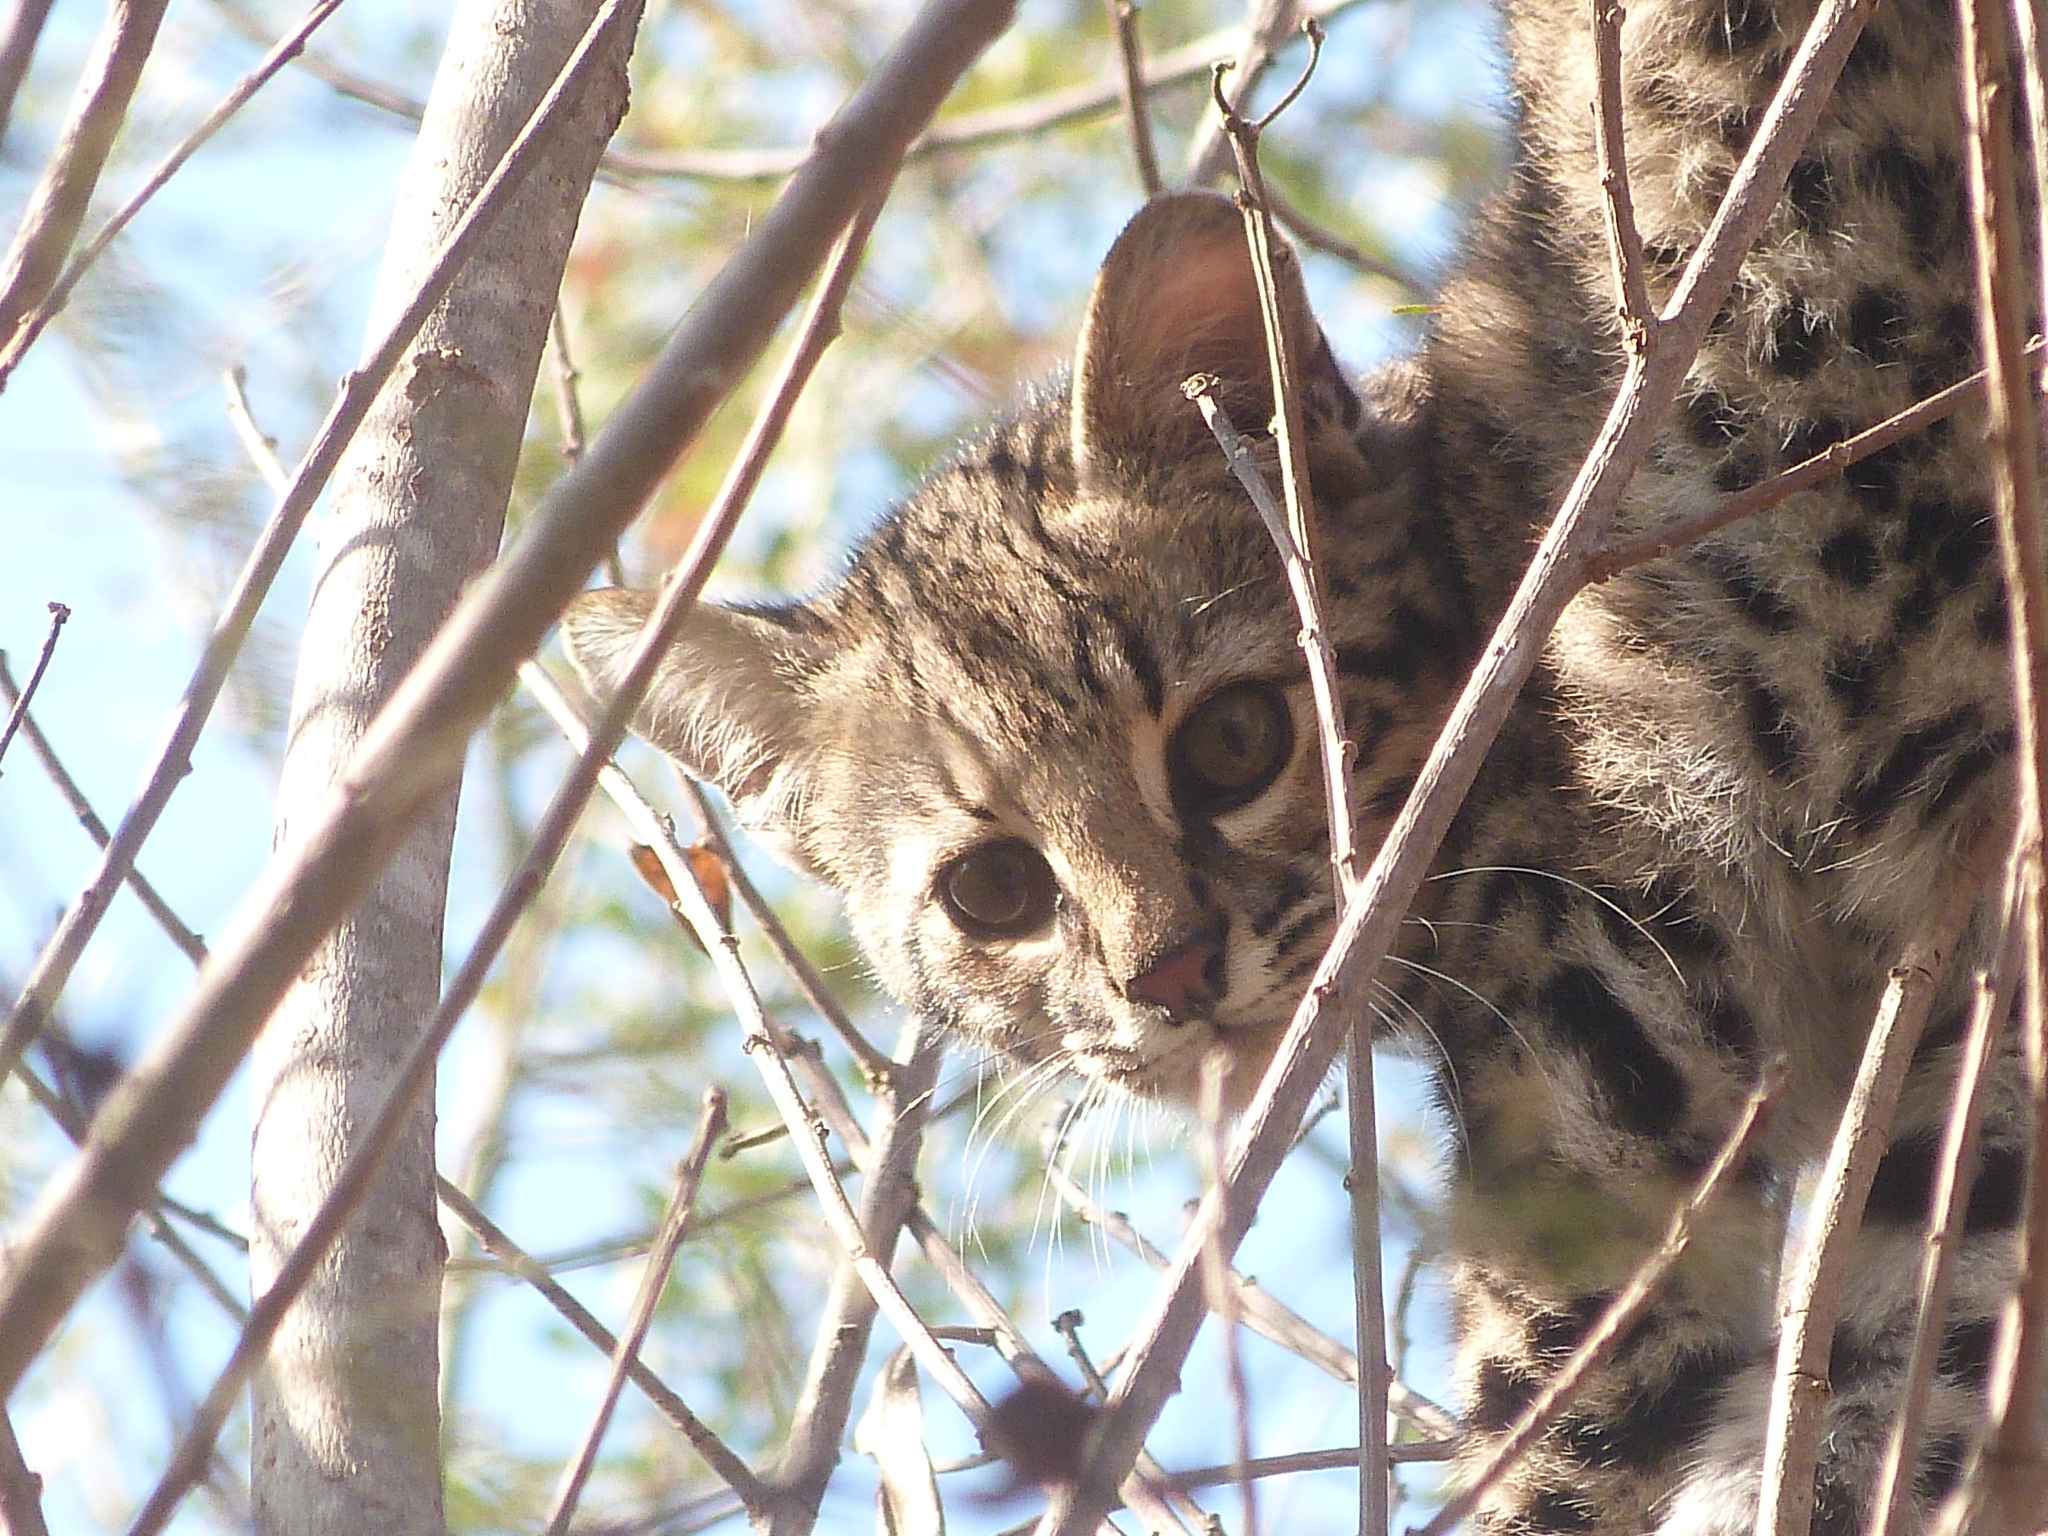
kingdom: Animalia
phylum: Chordata
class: Mammalia
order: Carnivora
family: Felidae
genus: Leopardus
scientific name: Leopardus geoffroyi
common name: Geoffroy's cat
